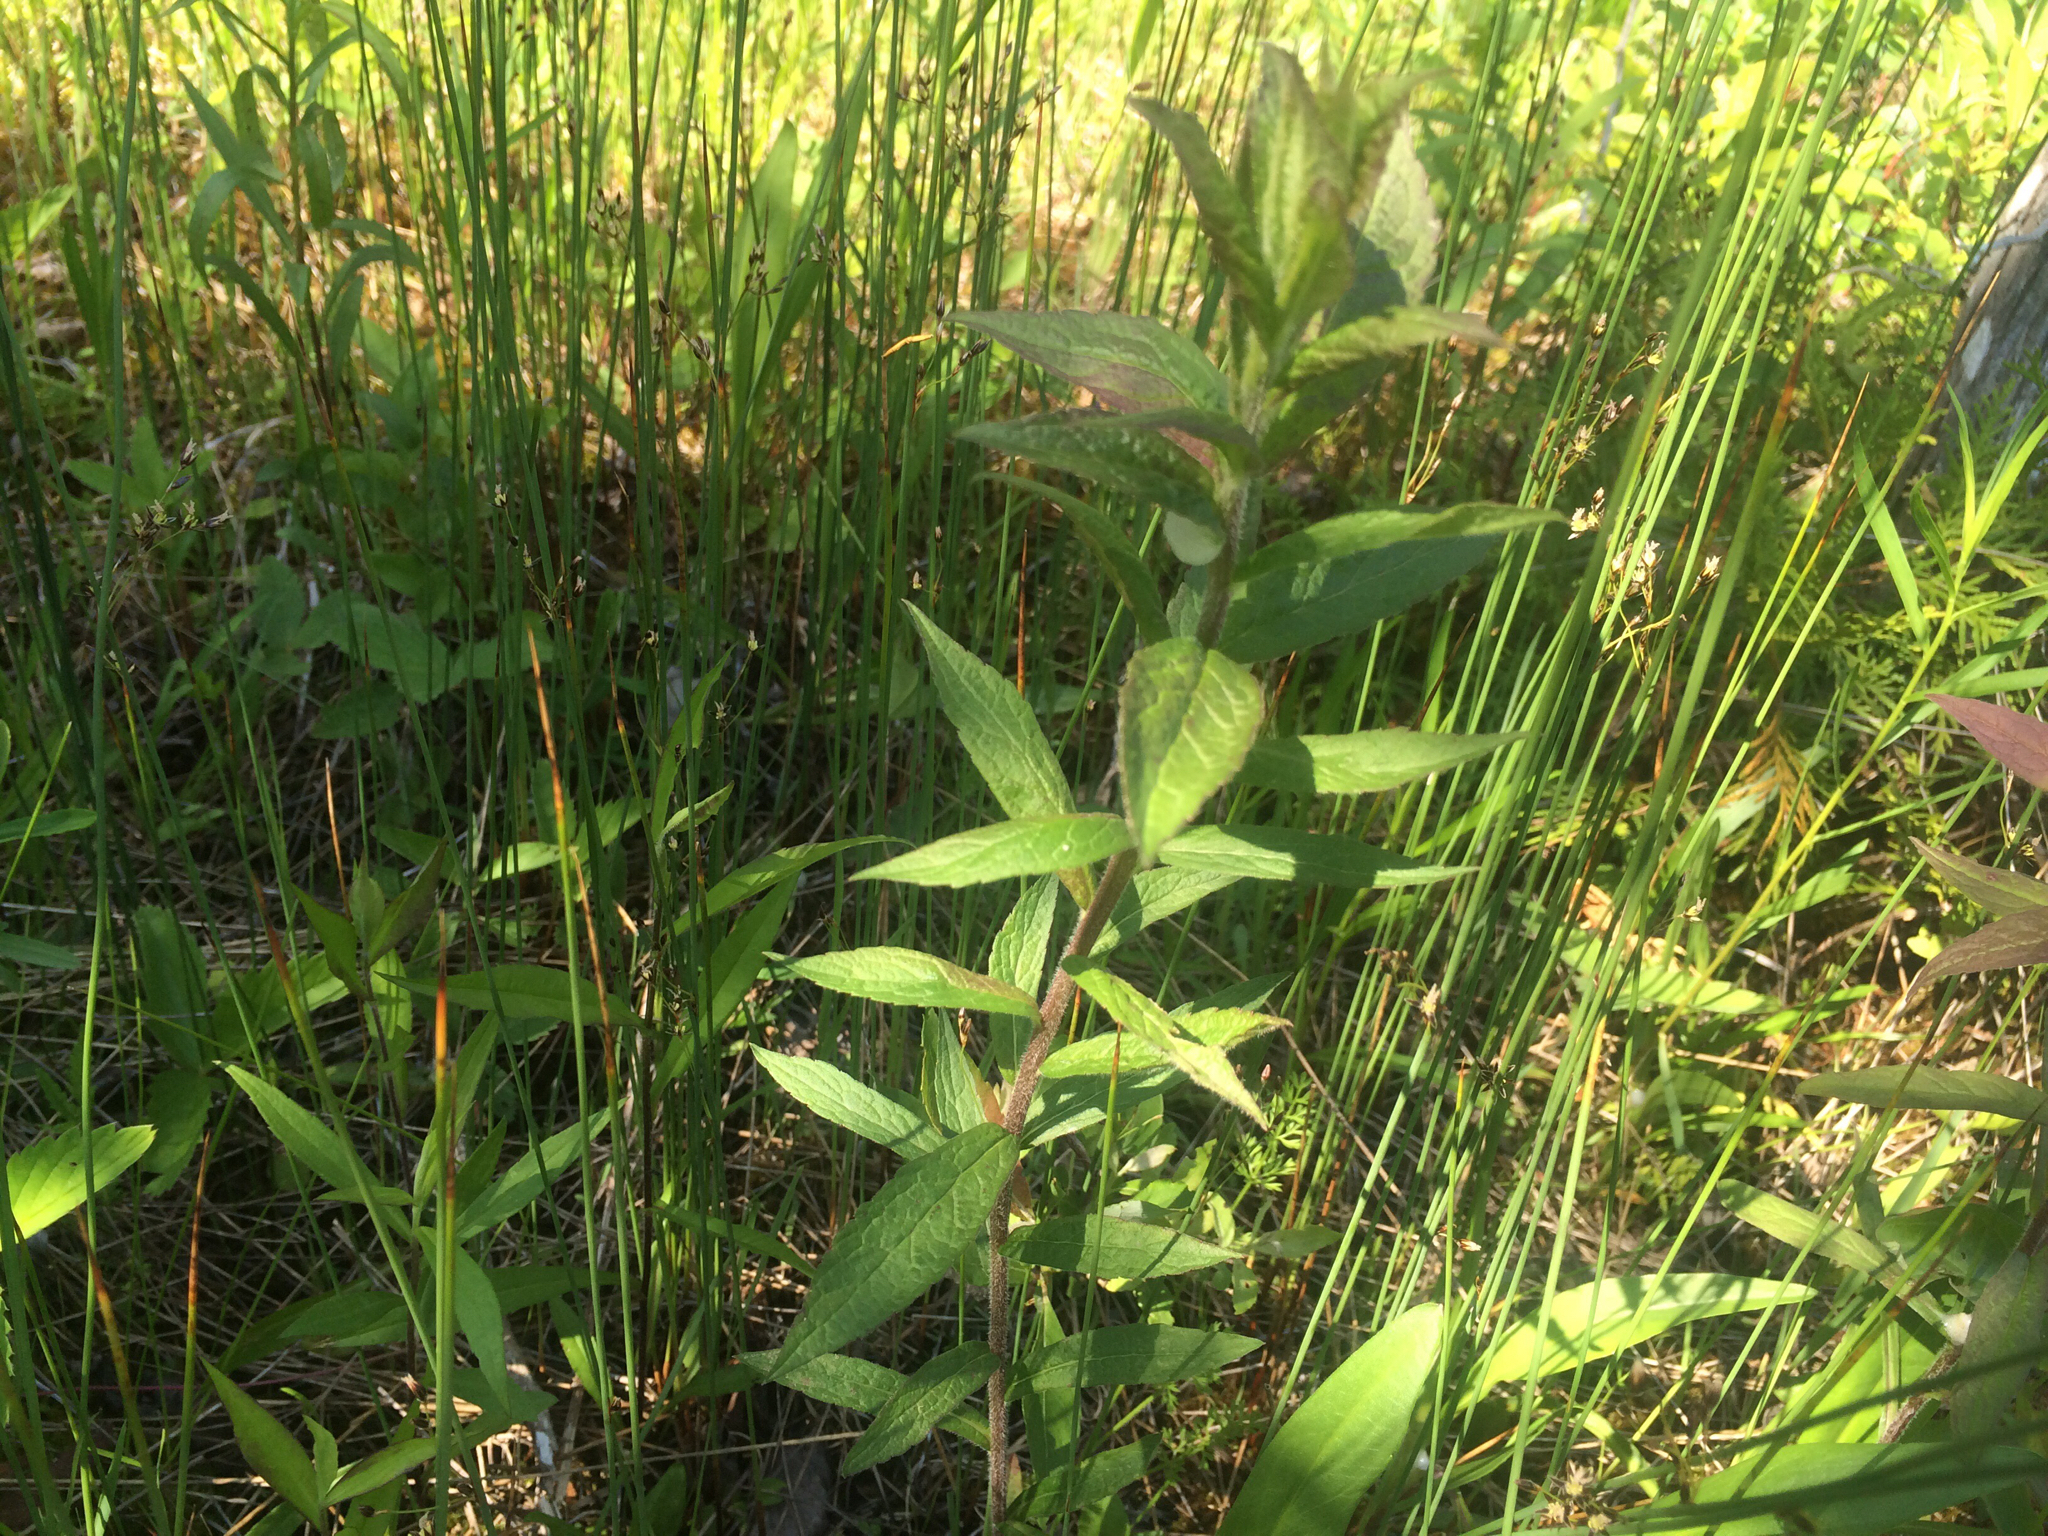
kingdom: Plantae
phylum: Tracheophyta
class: Magnoliopsida
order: Asterales
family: Asteraceae
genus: Solidago
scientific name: Solidago rugosa
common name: Rough-stemmed goldenrod
